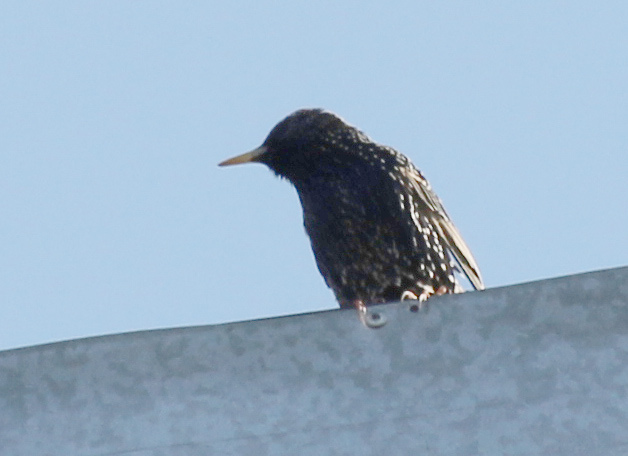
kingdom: Animalia
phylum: Chordata
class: Aves
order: Passeriformes
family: Sturnidae
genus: Sturnus
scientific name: Sturnus vulgaris
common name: Common starling
